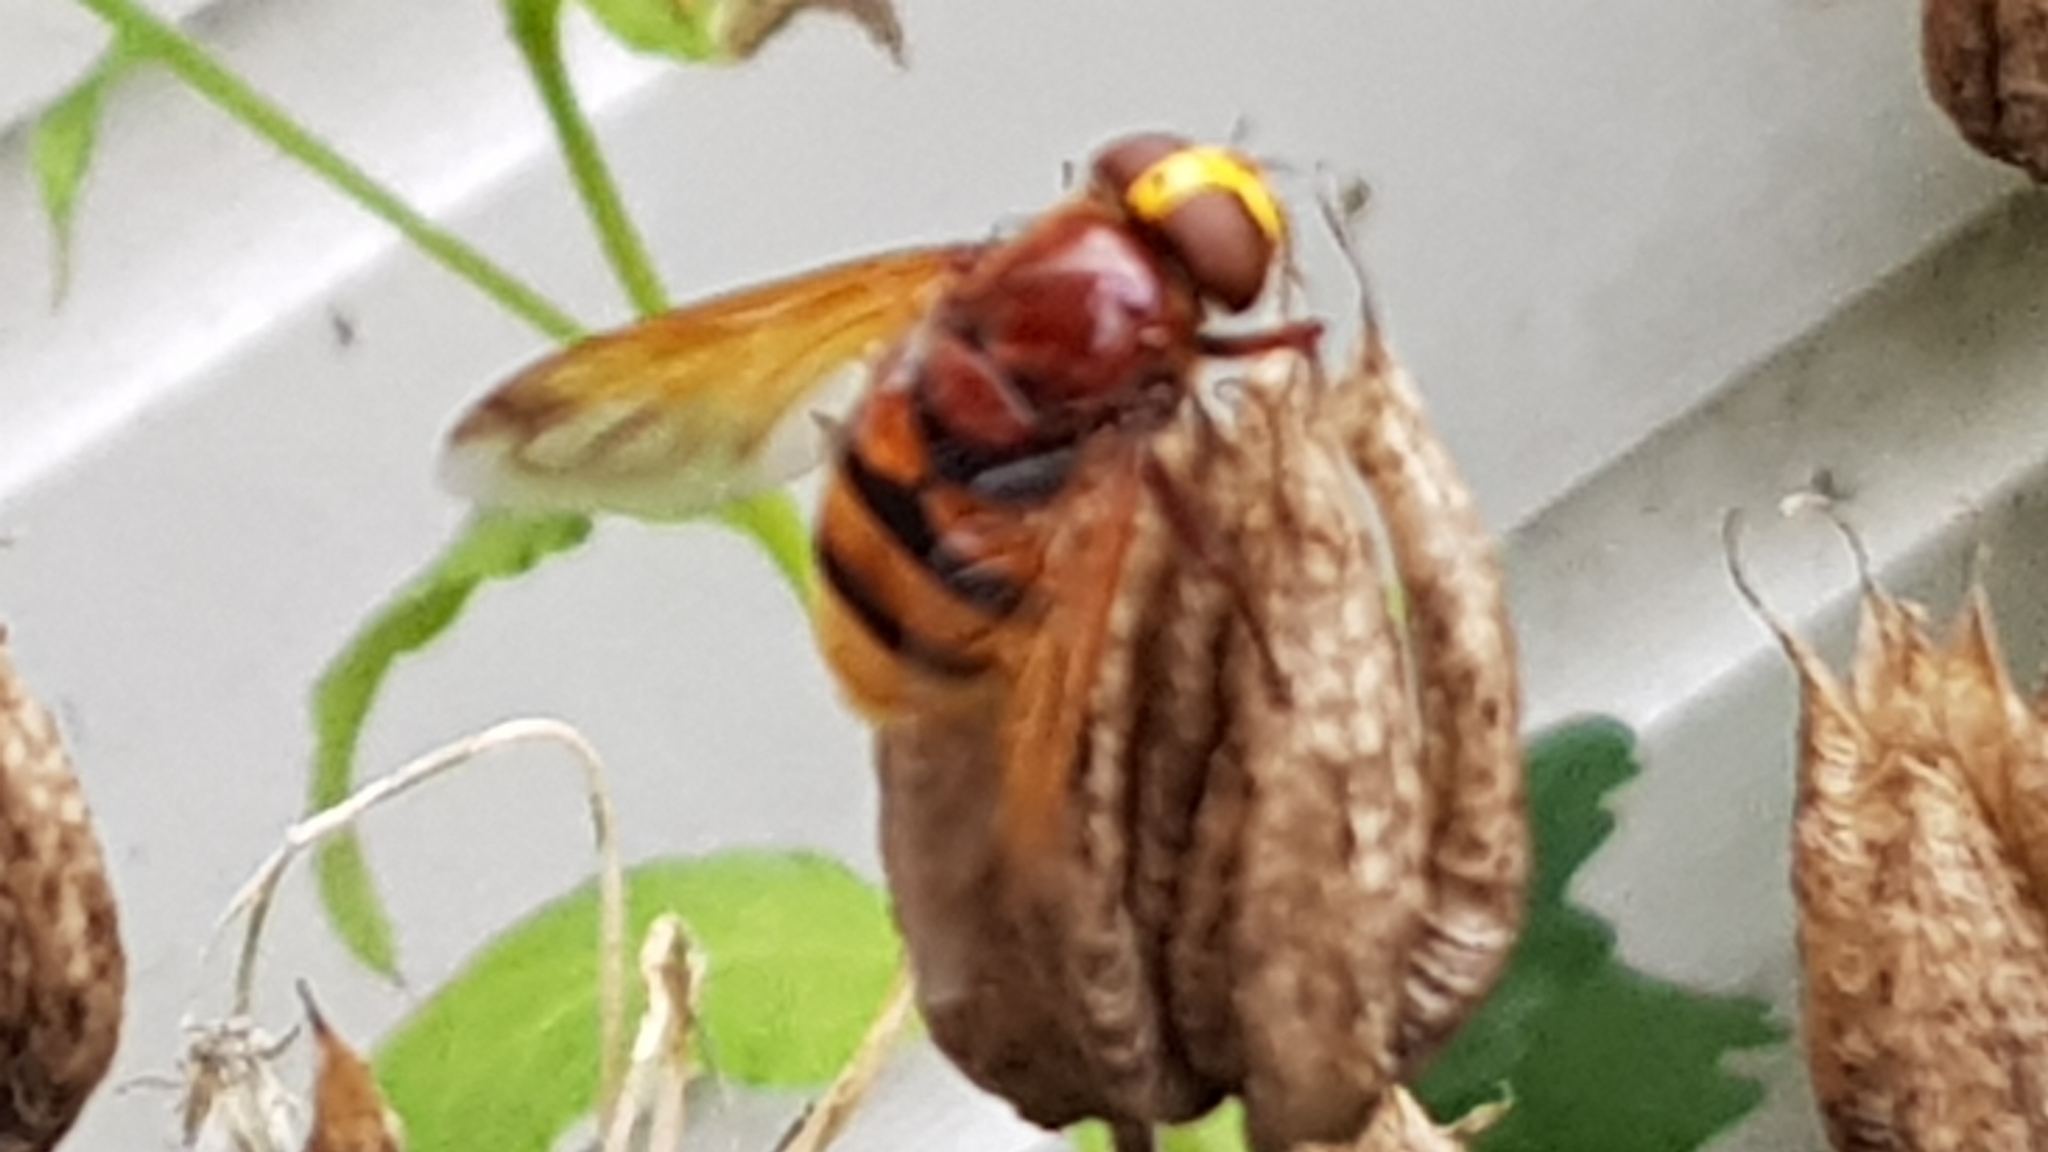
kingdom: Animalia
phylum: Arthropoda
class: Insecta
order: Diptera
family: Syrphidae
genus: Volucella
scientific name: Volucella zonaria
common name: Hornet hoverfly
